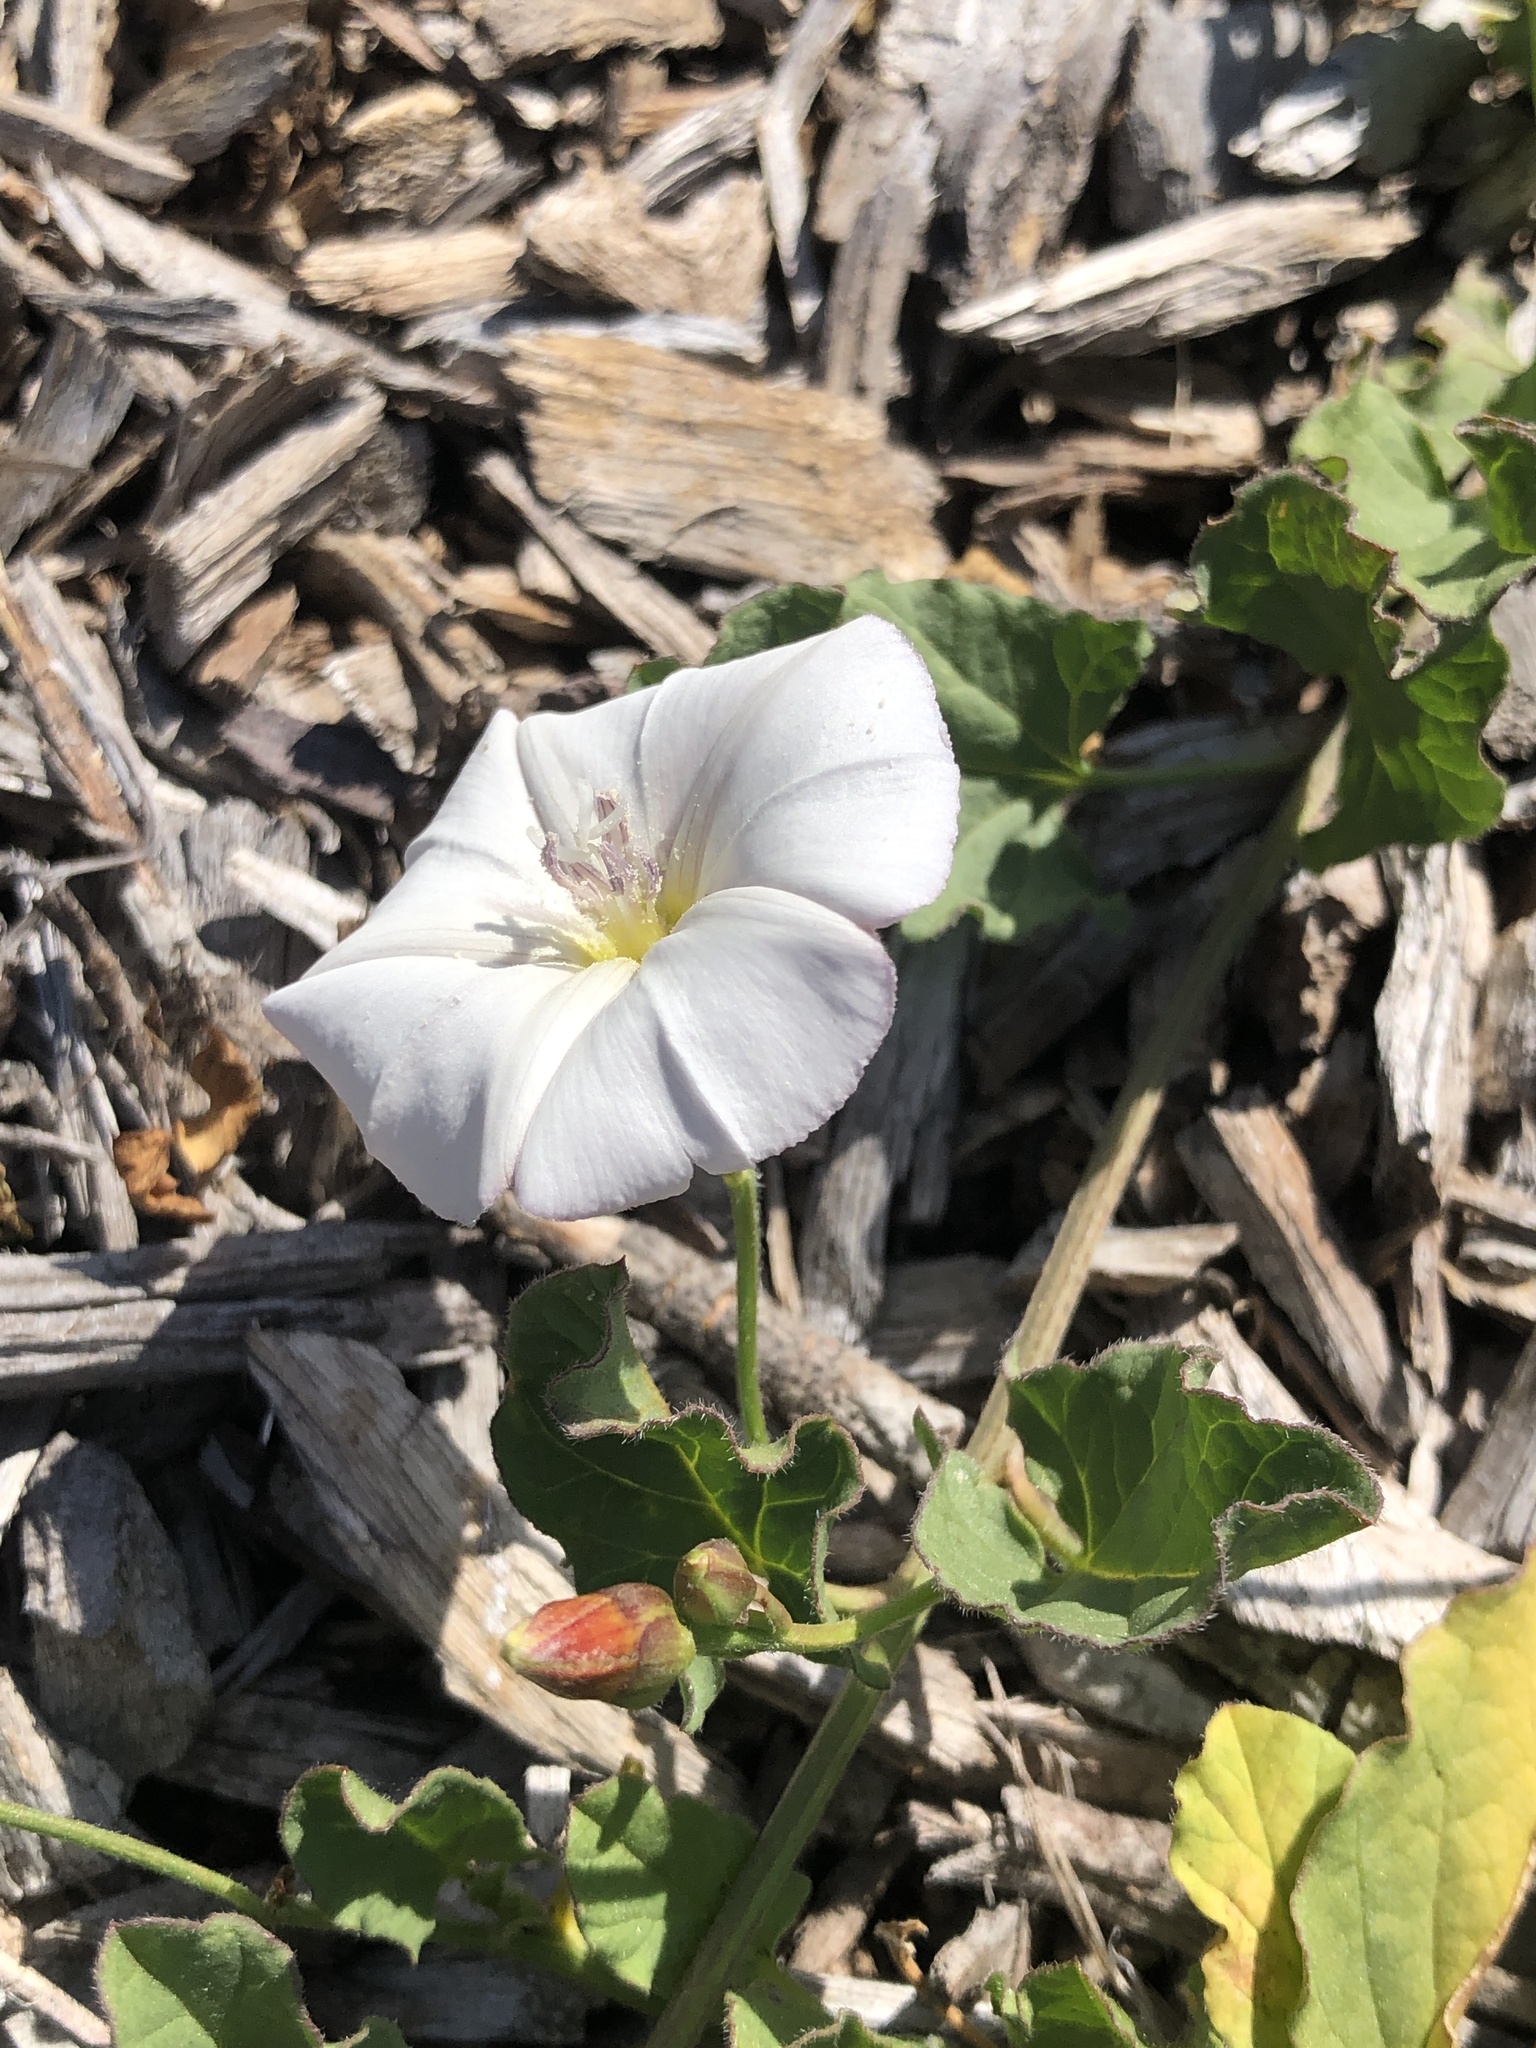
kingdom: Plantae
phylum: Tracheophyta
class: Magnoliopsida
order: Solanales
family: Convolvulaceae
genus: Convolvulus
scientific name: Convolvulus arvensis
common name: Field bindweed
